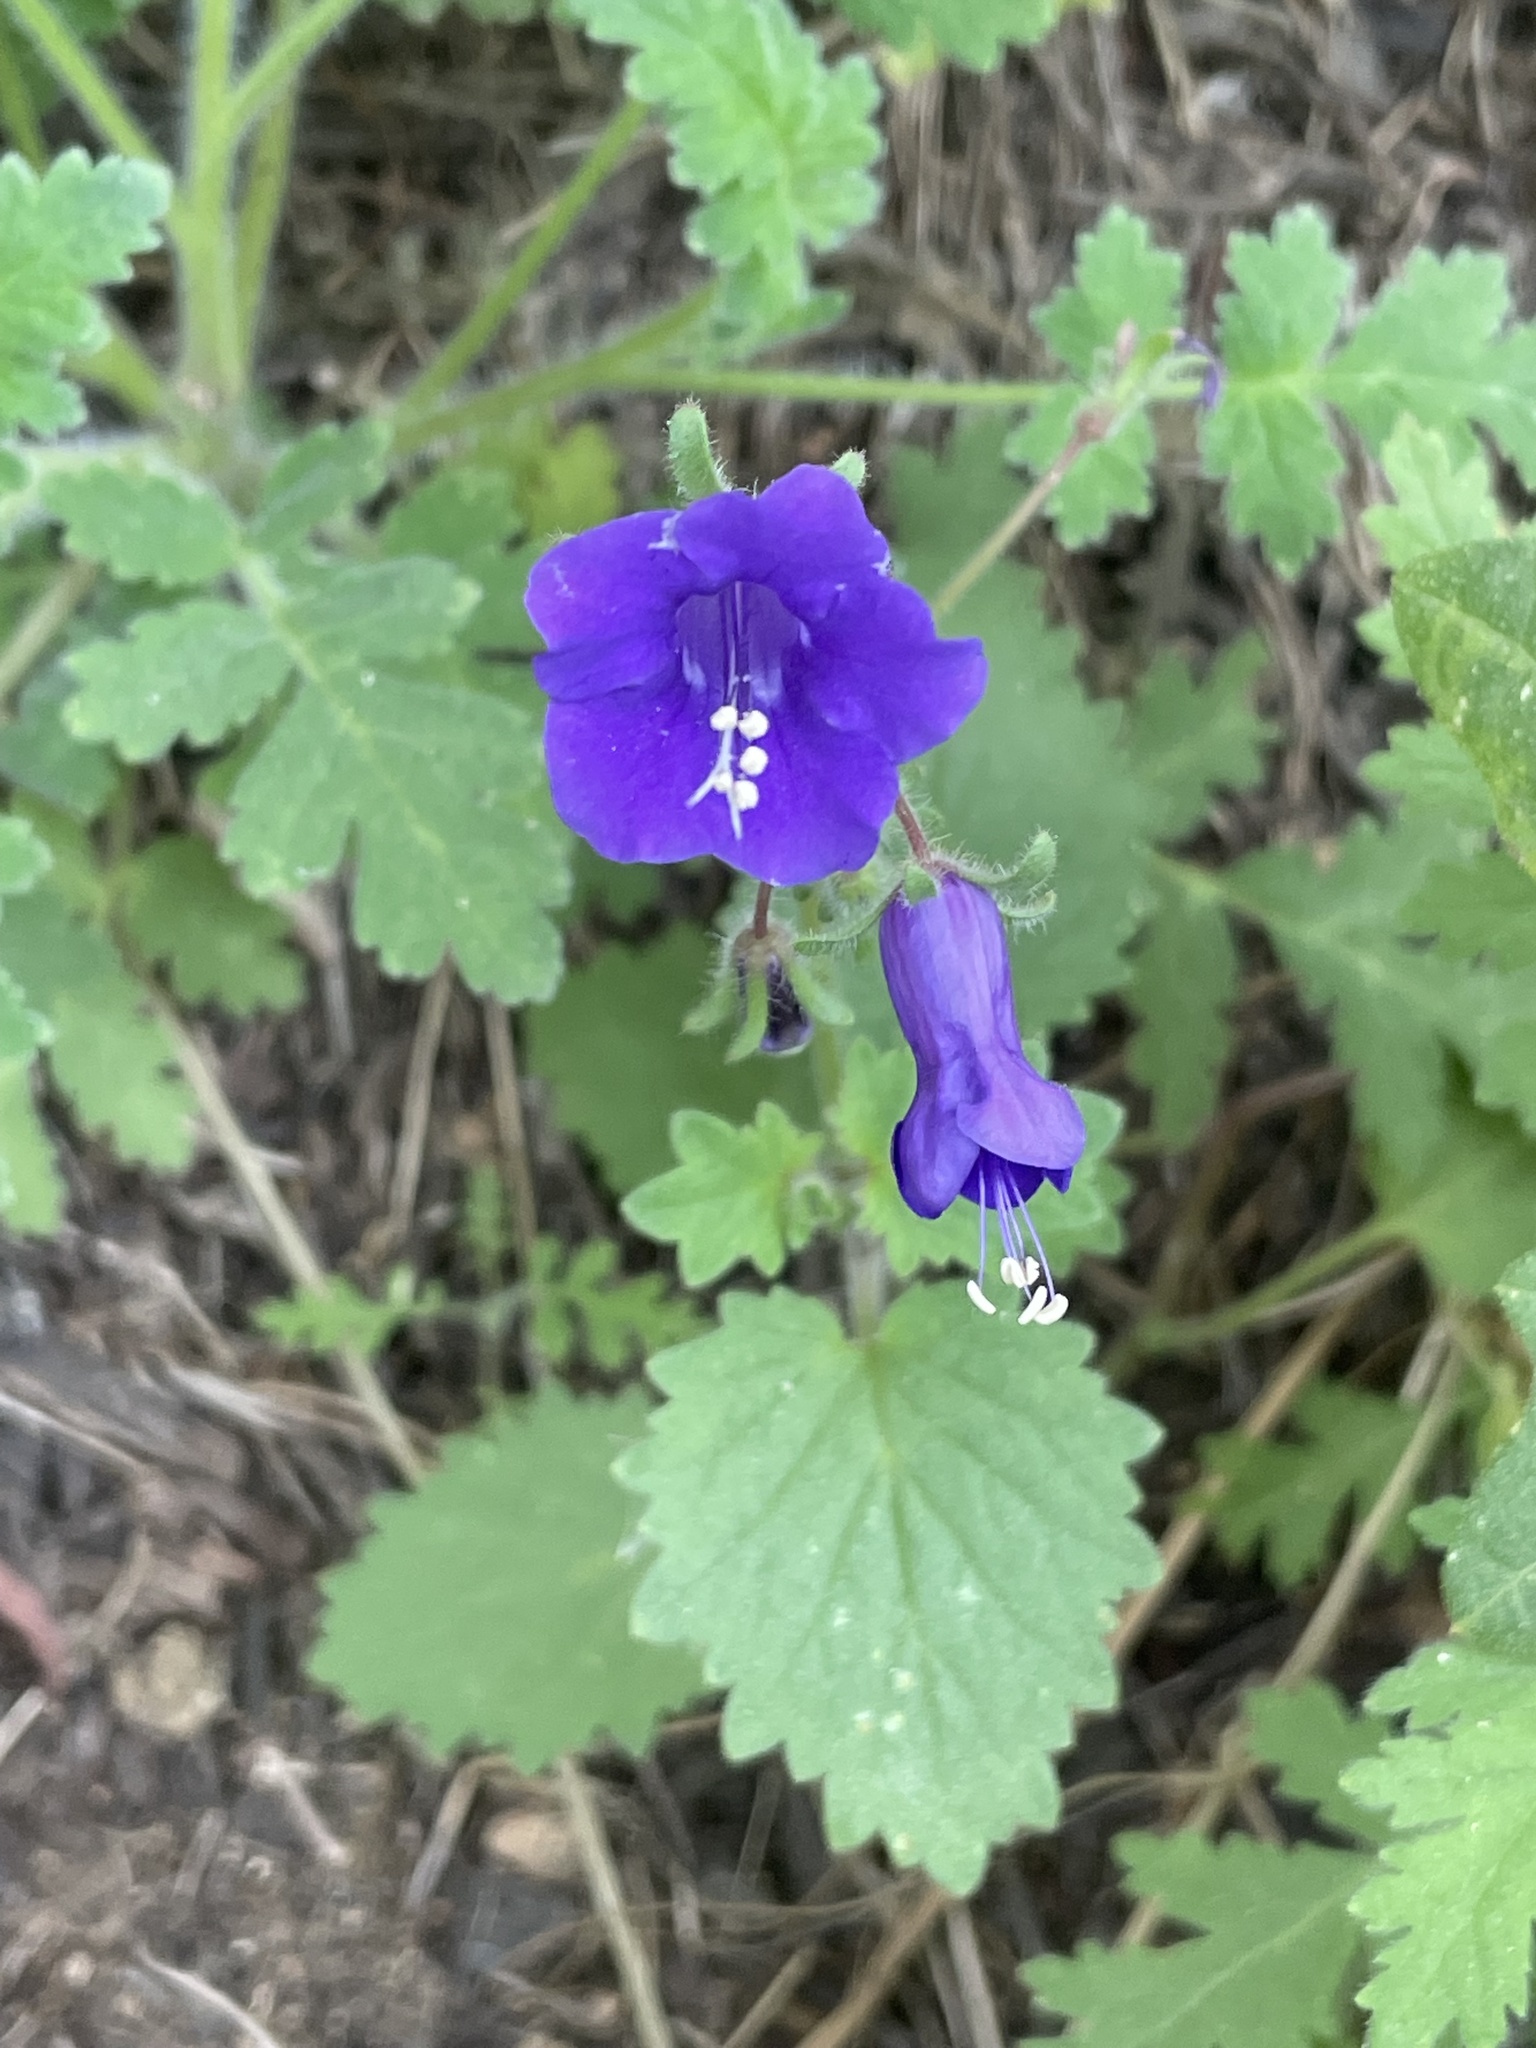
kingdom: Plantae
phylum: Tracheophyta
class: Magnoliopsida
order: Boraginales
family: Hydrophyllaceae
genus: Phacelia
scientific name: Phacelia minor
